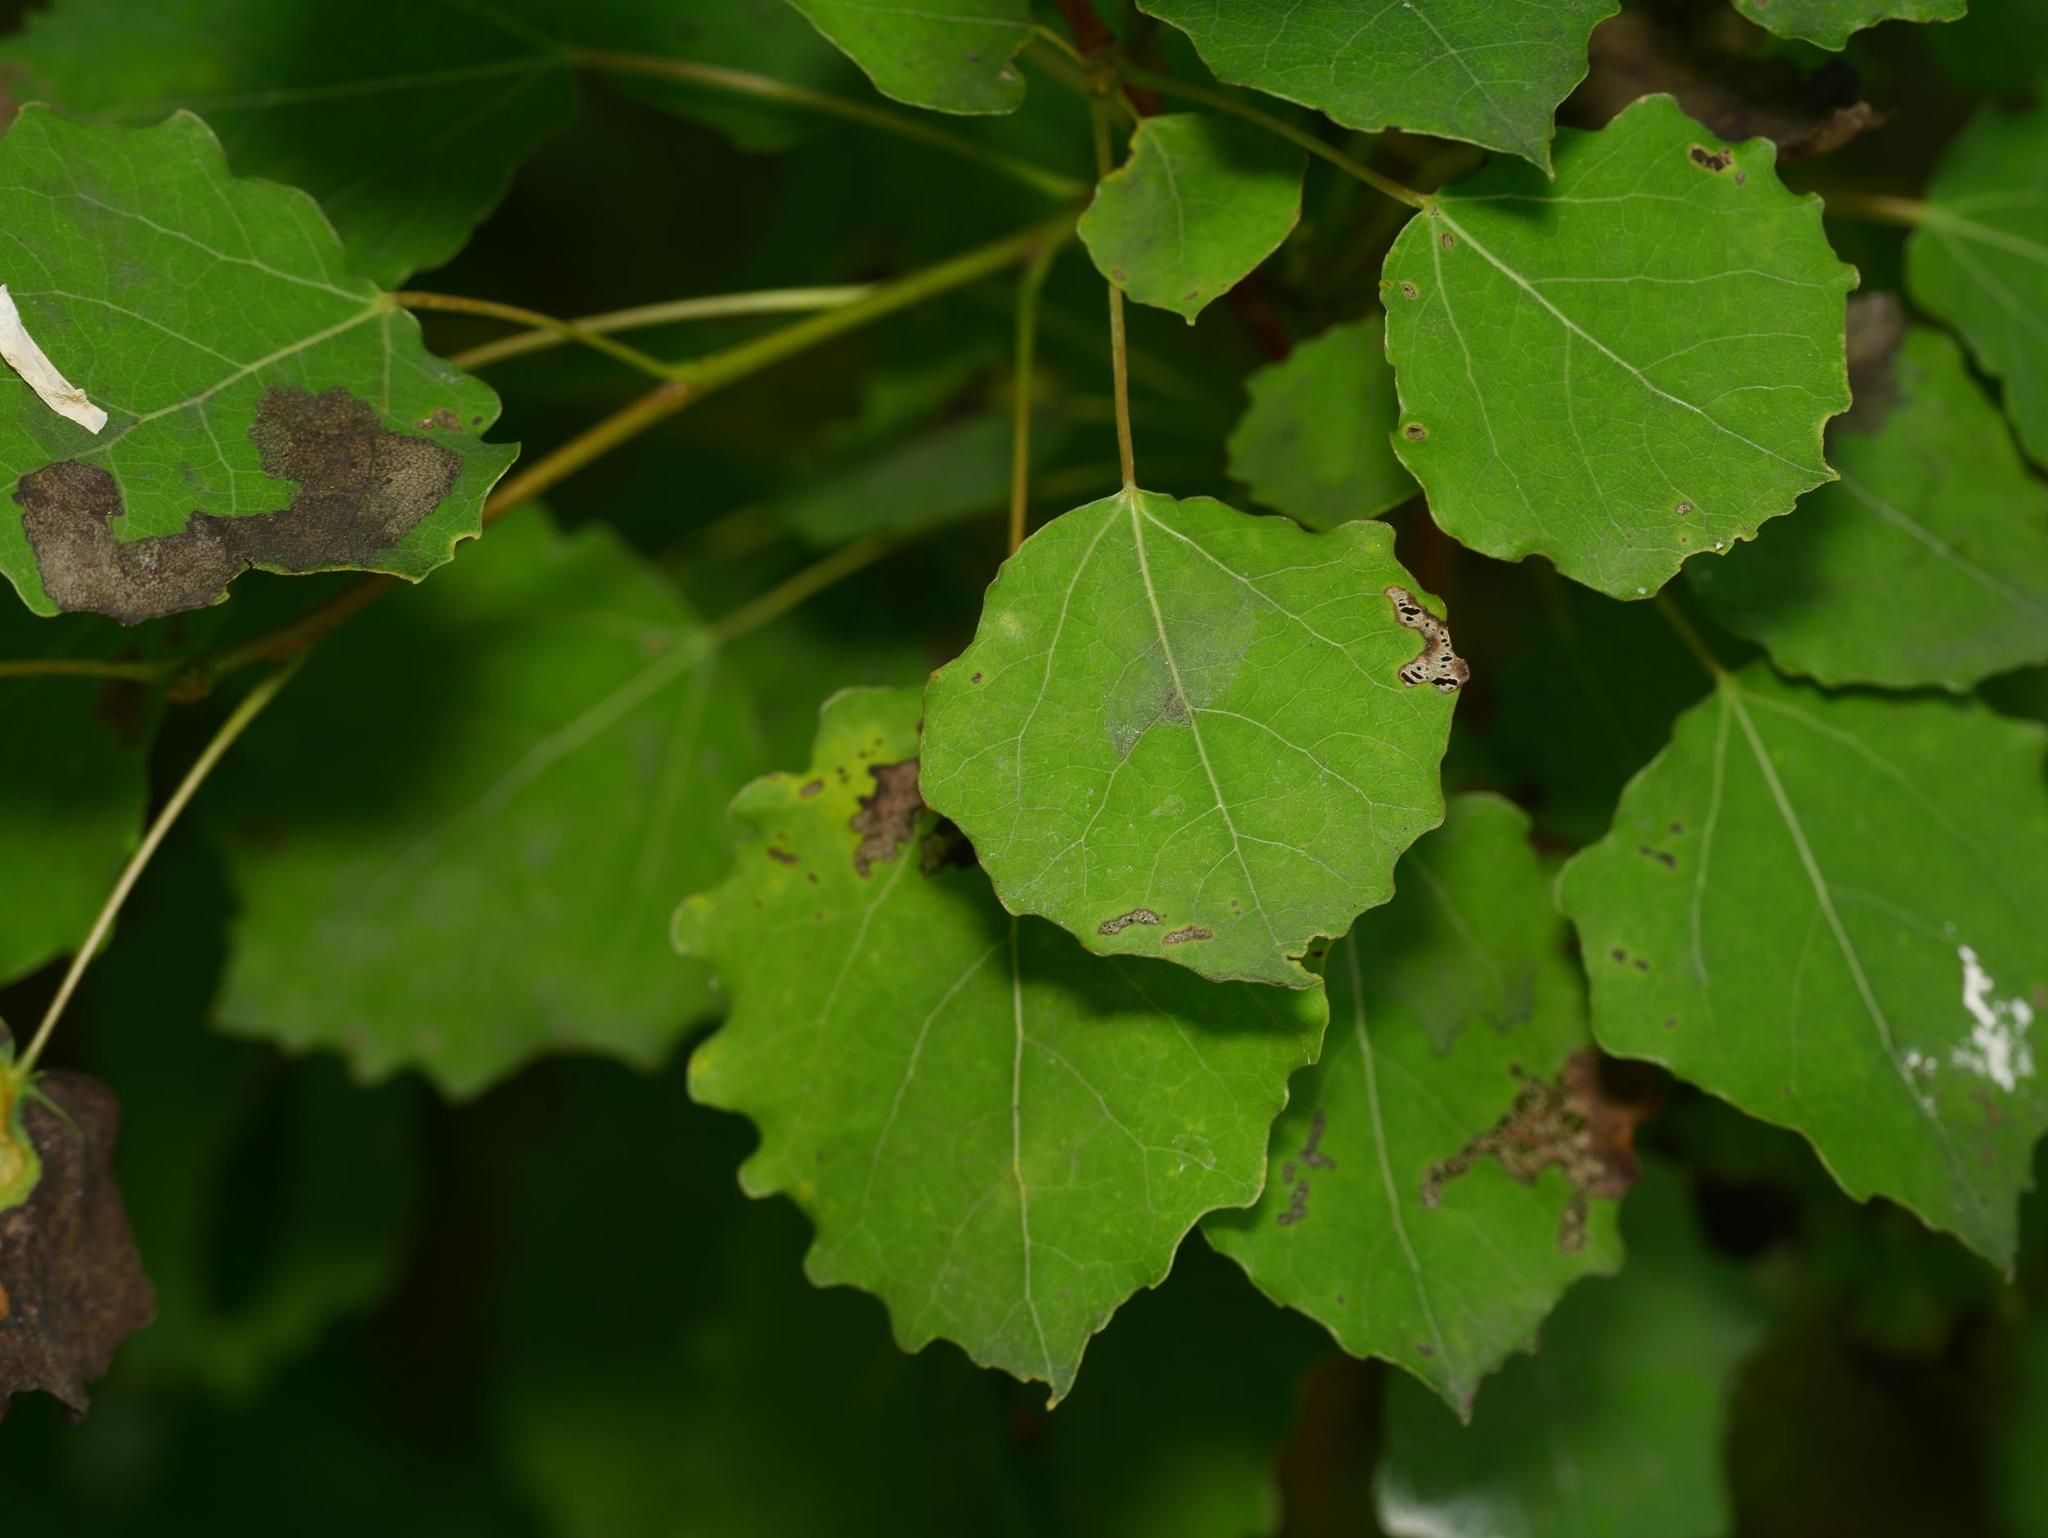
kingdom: Plantae
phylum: Tracheophyta
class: Magnoliopsida
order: Malpighiales
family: Salicaceae
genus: Populus
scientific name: Populus tremula
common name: European aspen
